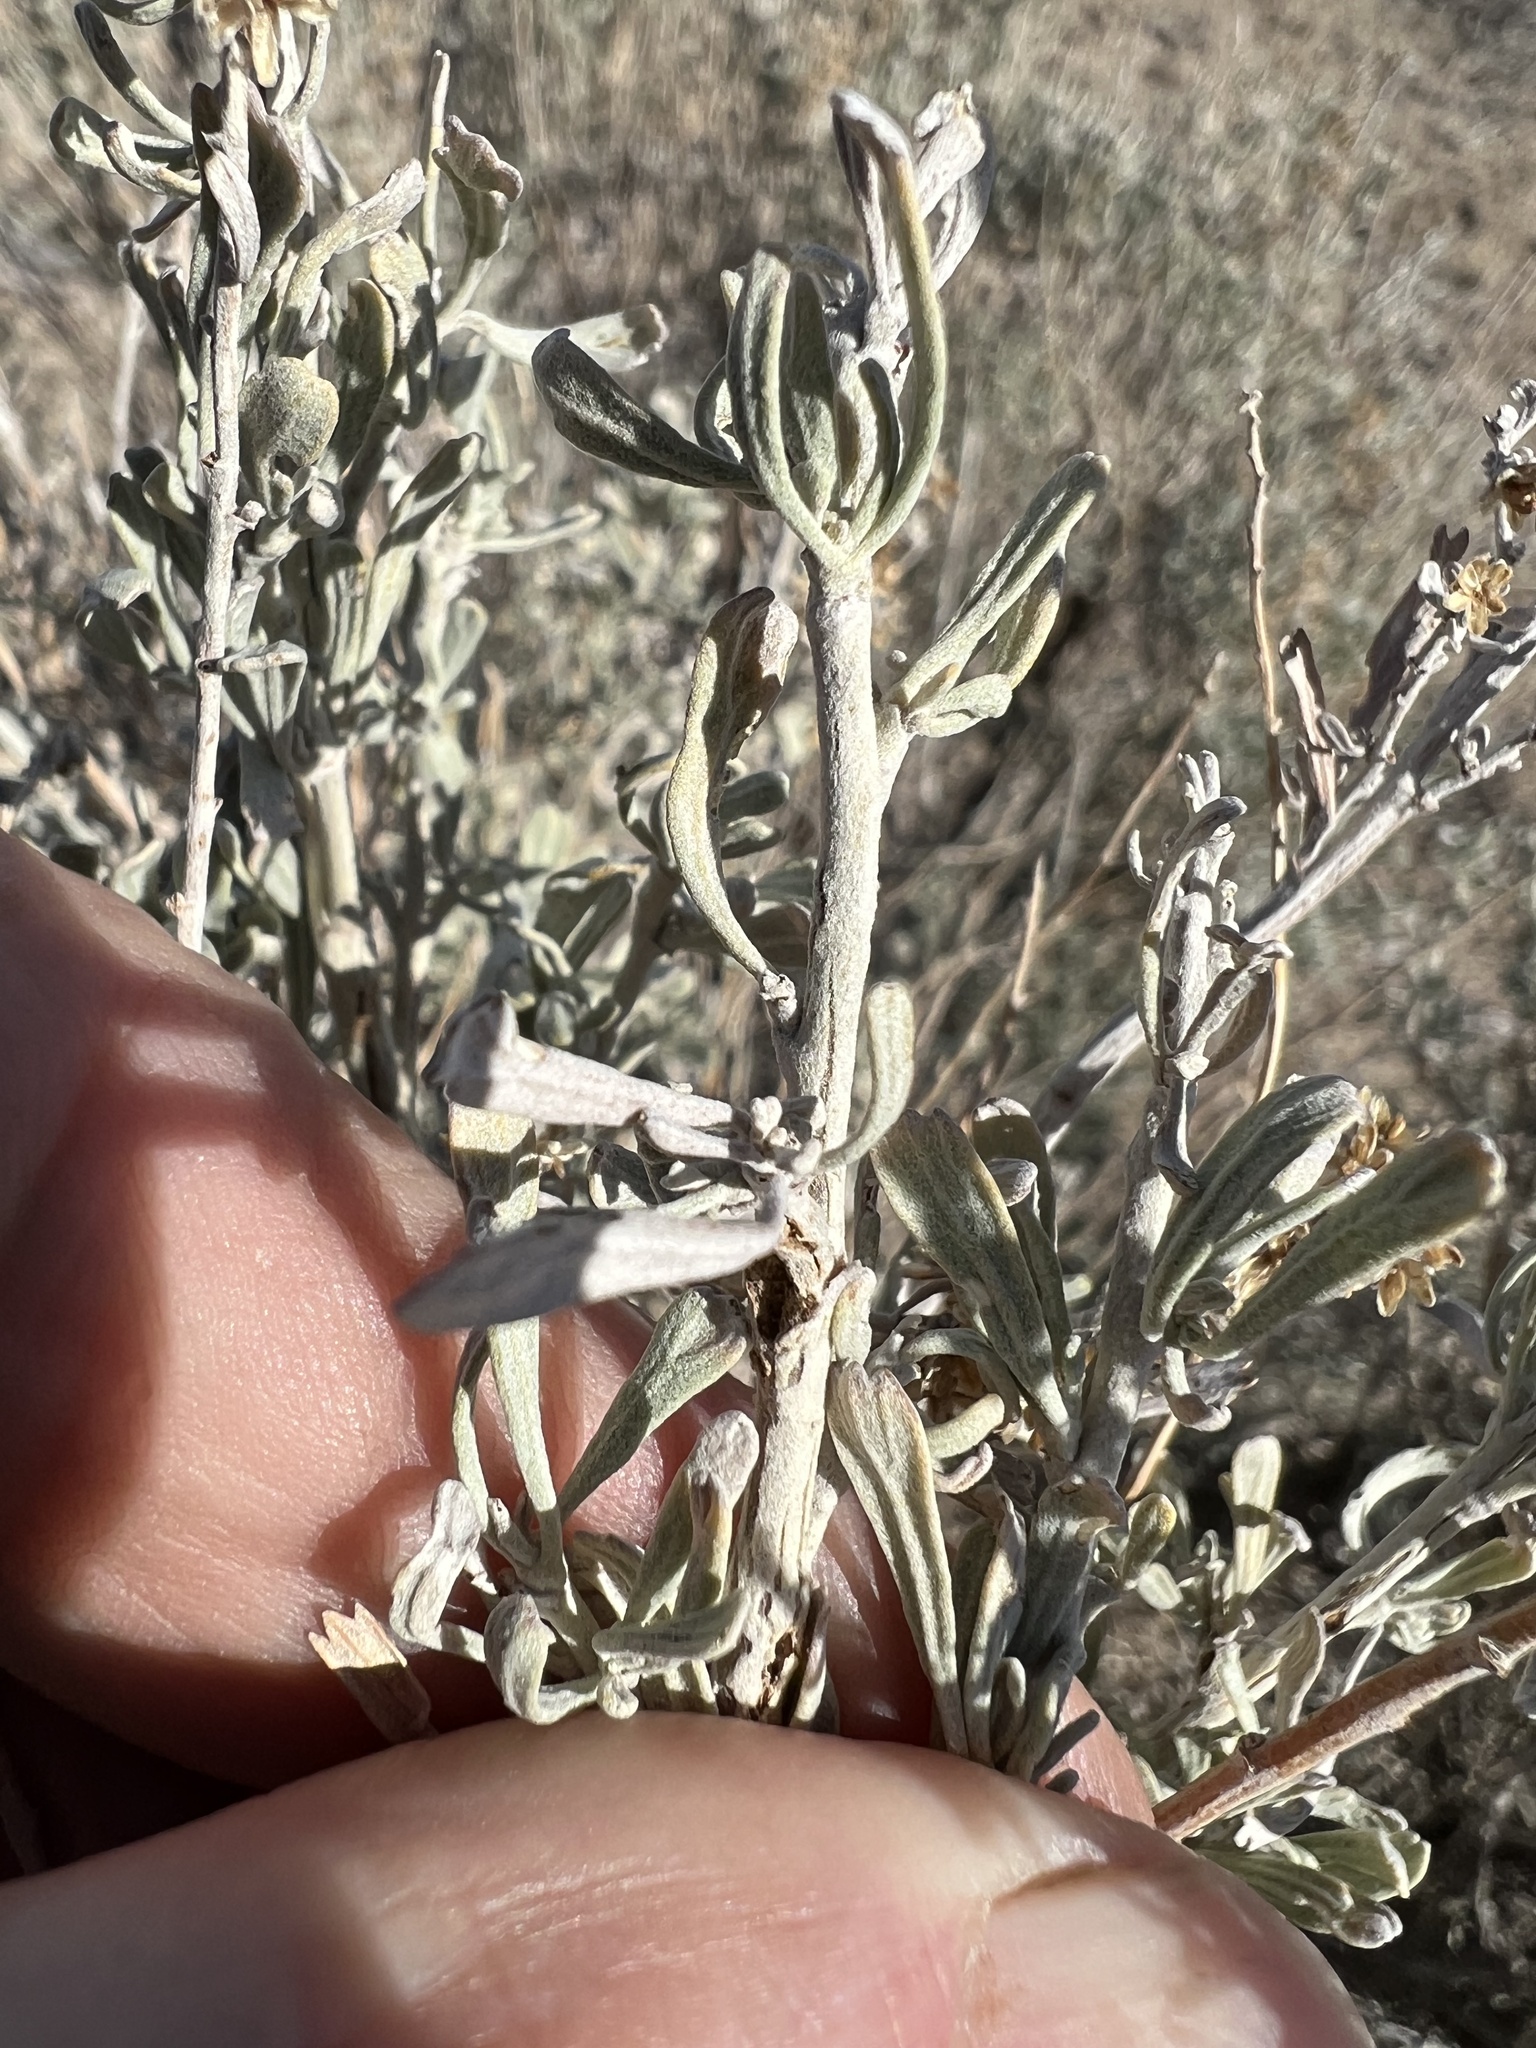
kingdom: Plantae
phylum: Tracheophyta
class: Magnoliopsida
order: Asterales
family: Asteraceae
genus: Artemisia
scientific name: Artemisia tridentata
